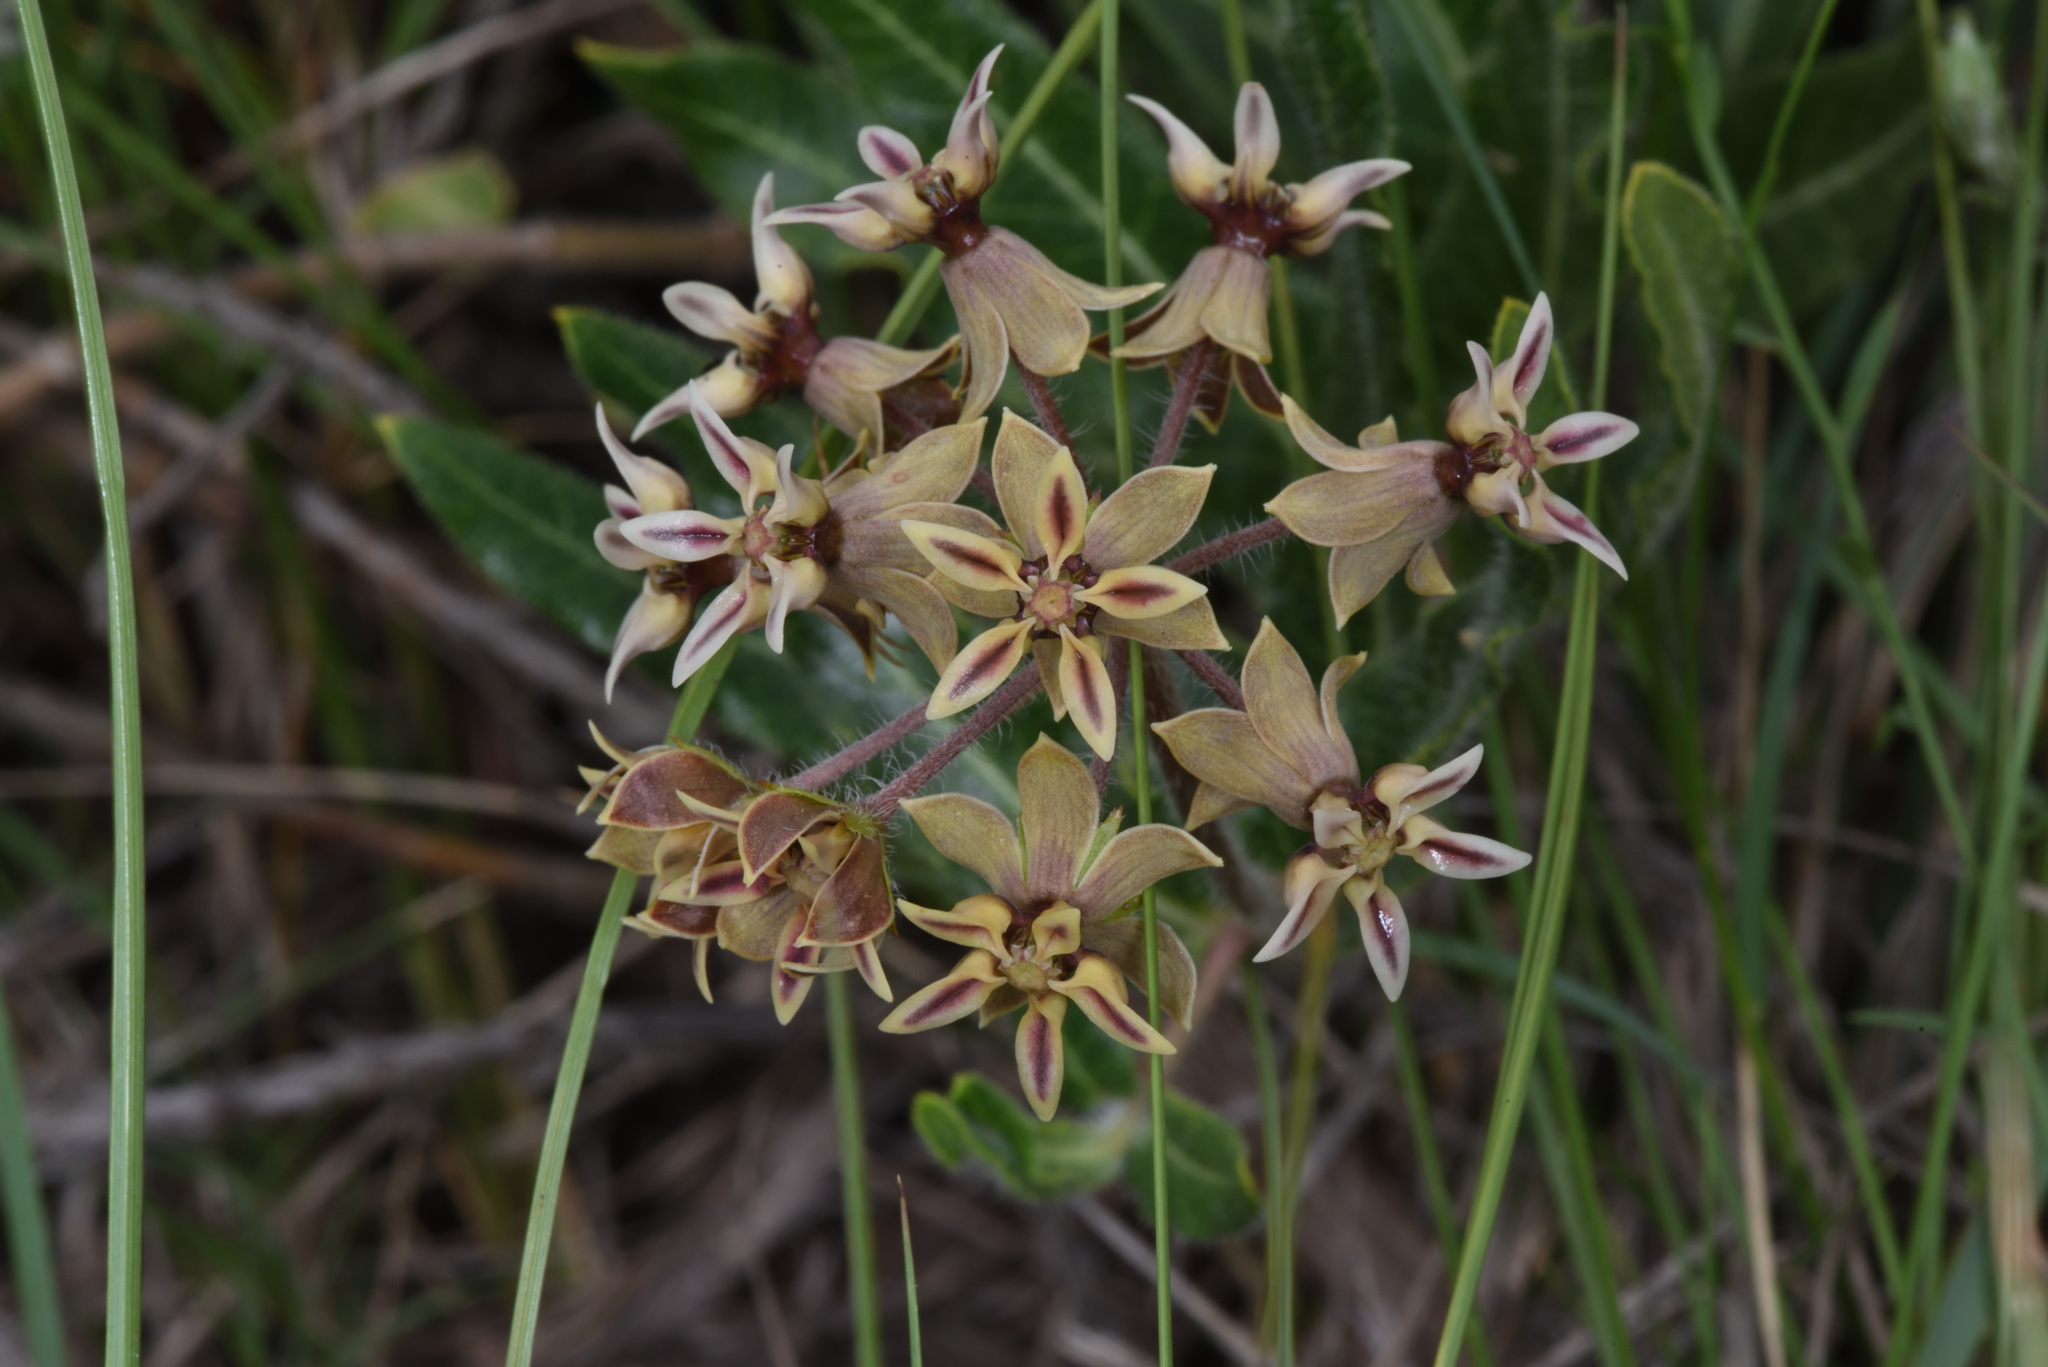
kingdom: Plantae
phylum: Tracheophyta
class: Magnoliopsida
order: Gentianales
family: Apocynaceae
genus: Asclepias
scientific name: Asclepias crispa
